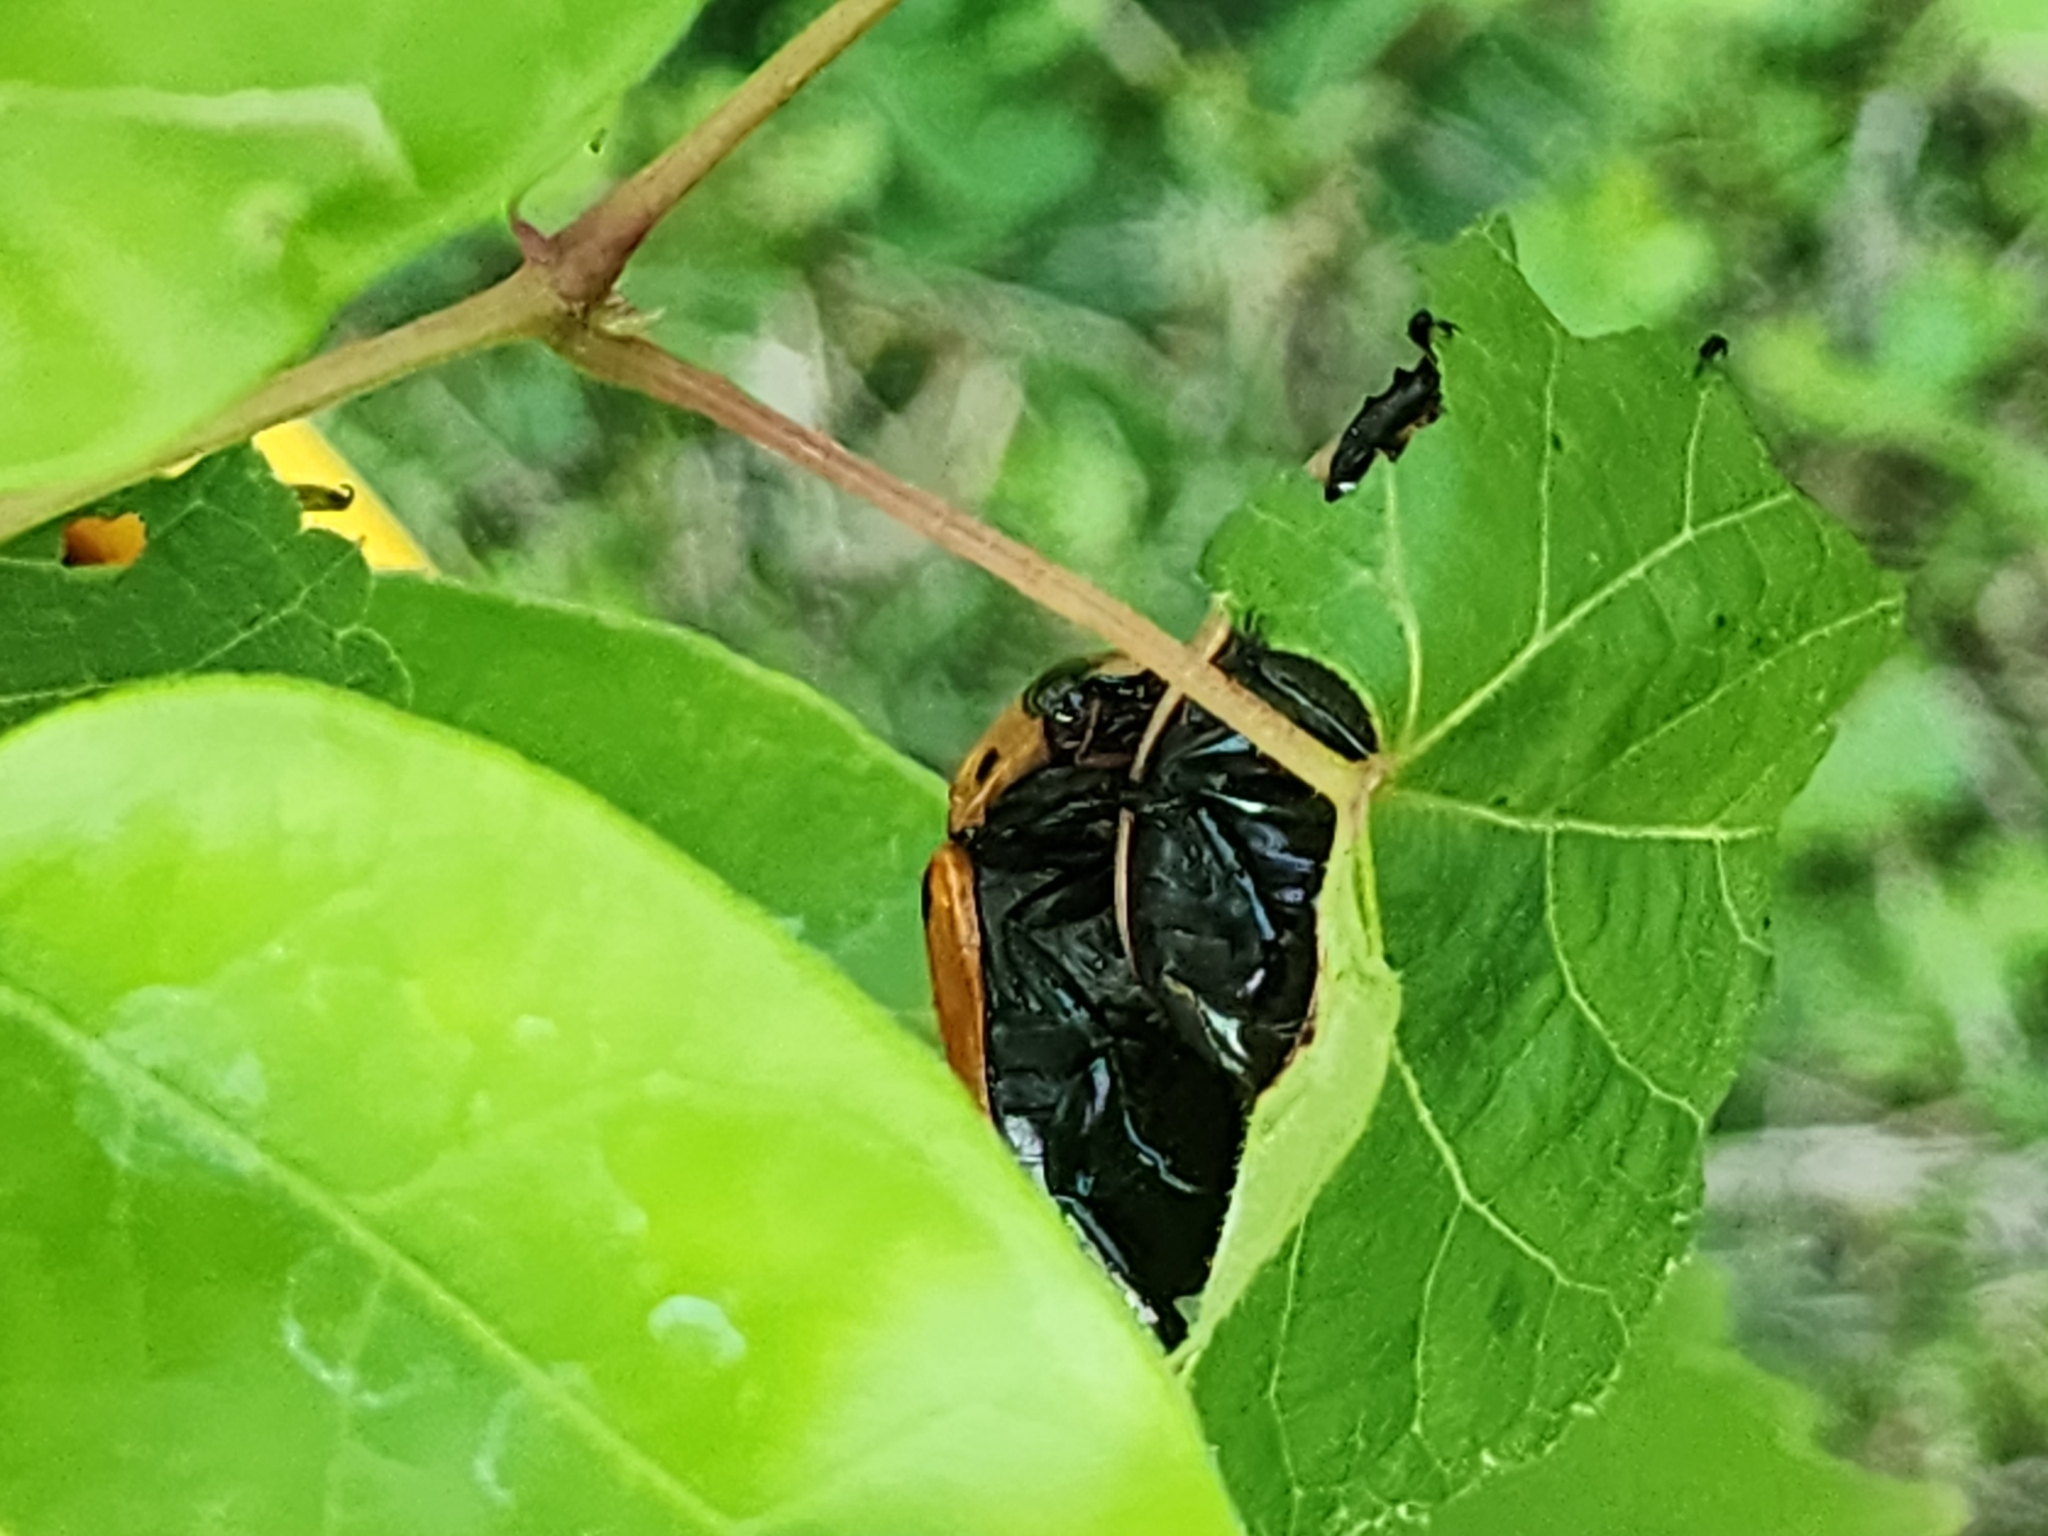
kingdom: Animalia
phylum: Arthropoda
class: Insecta
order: Coleoptera
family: Scarabaeidae
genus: Pelidnota
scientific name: Pelidnota punctata
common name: Grapevine beetle
